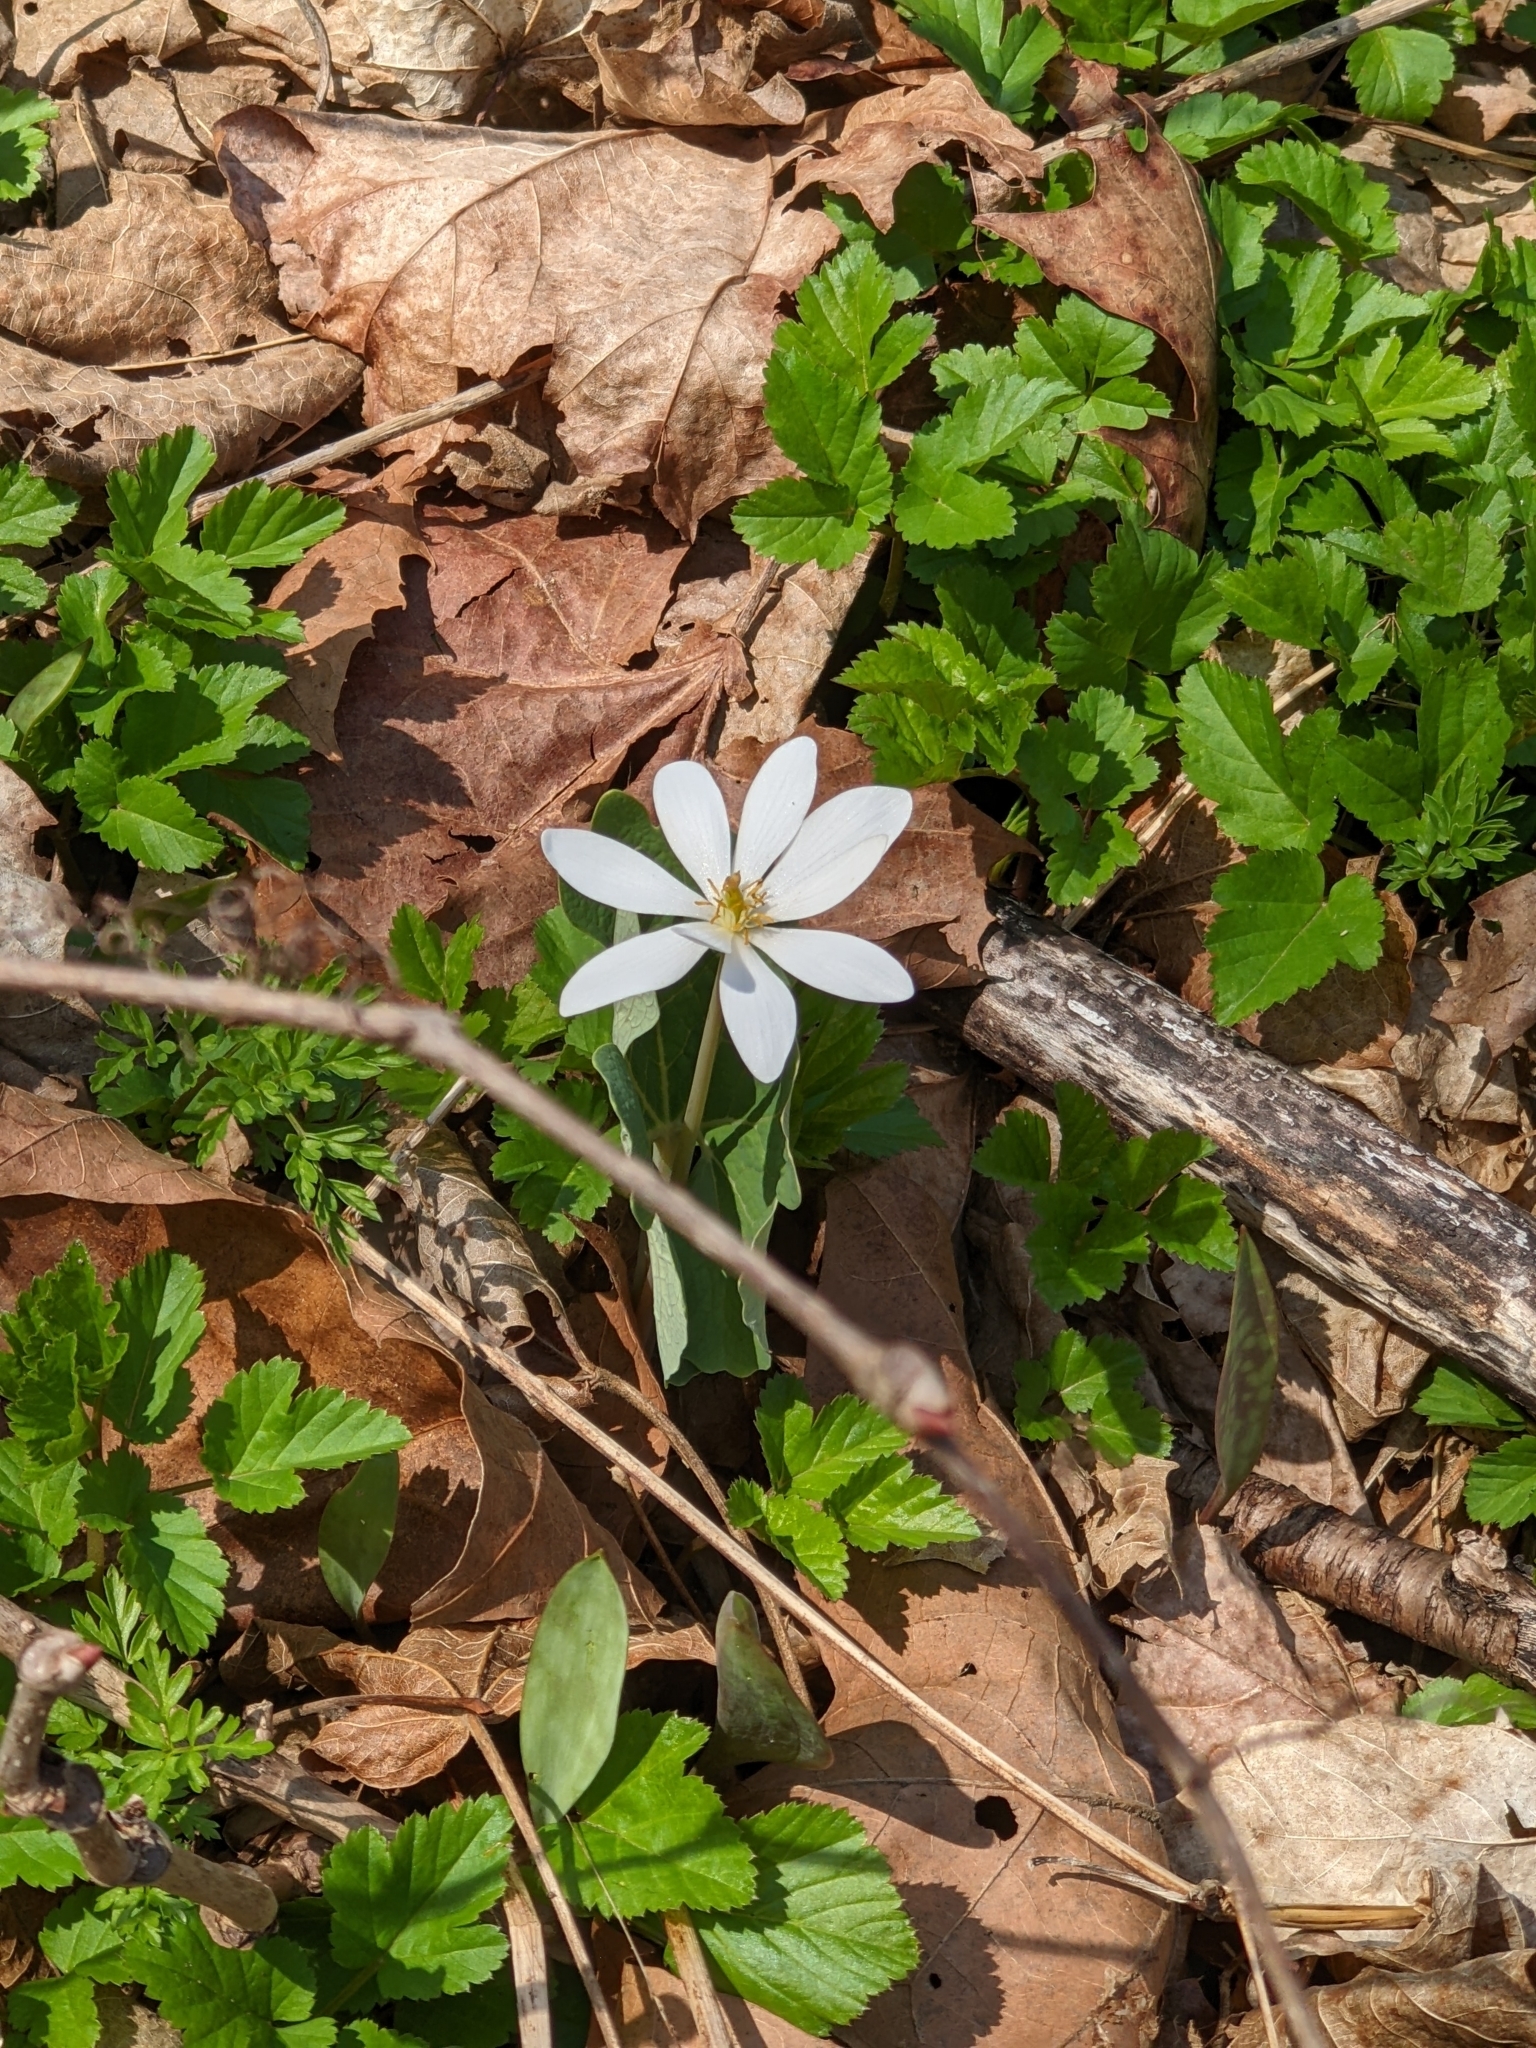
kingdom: Plantae
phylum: Tracheophyta
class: Magnoliopsida
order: Ranunculales
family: Papaveraceae
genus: Sanguinaria
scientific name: Sanguinaria canadensis
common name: Bloodroot
